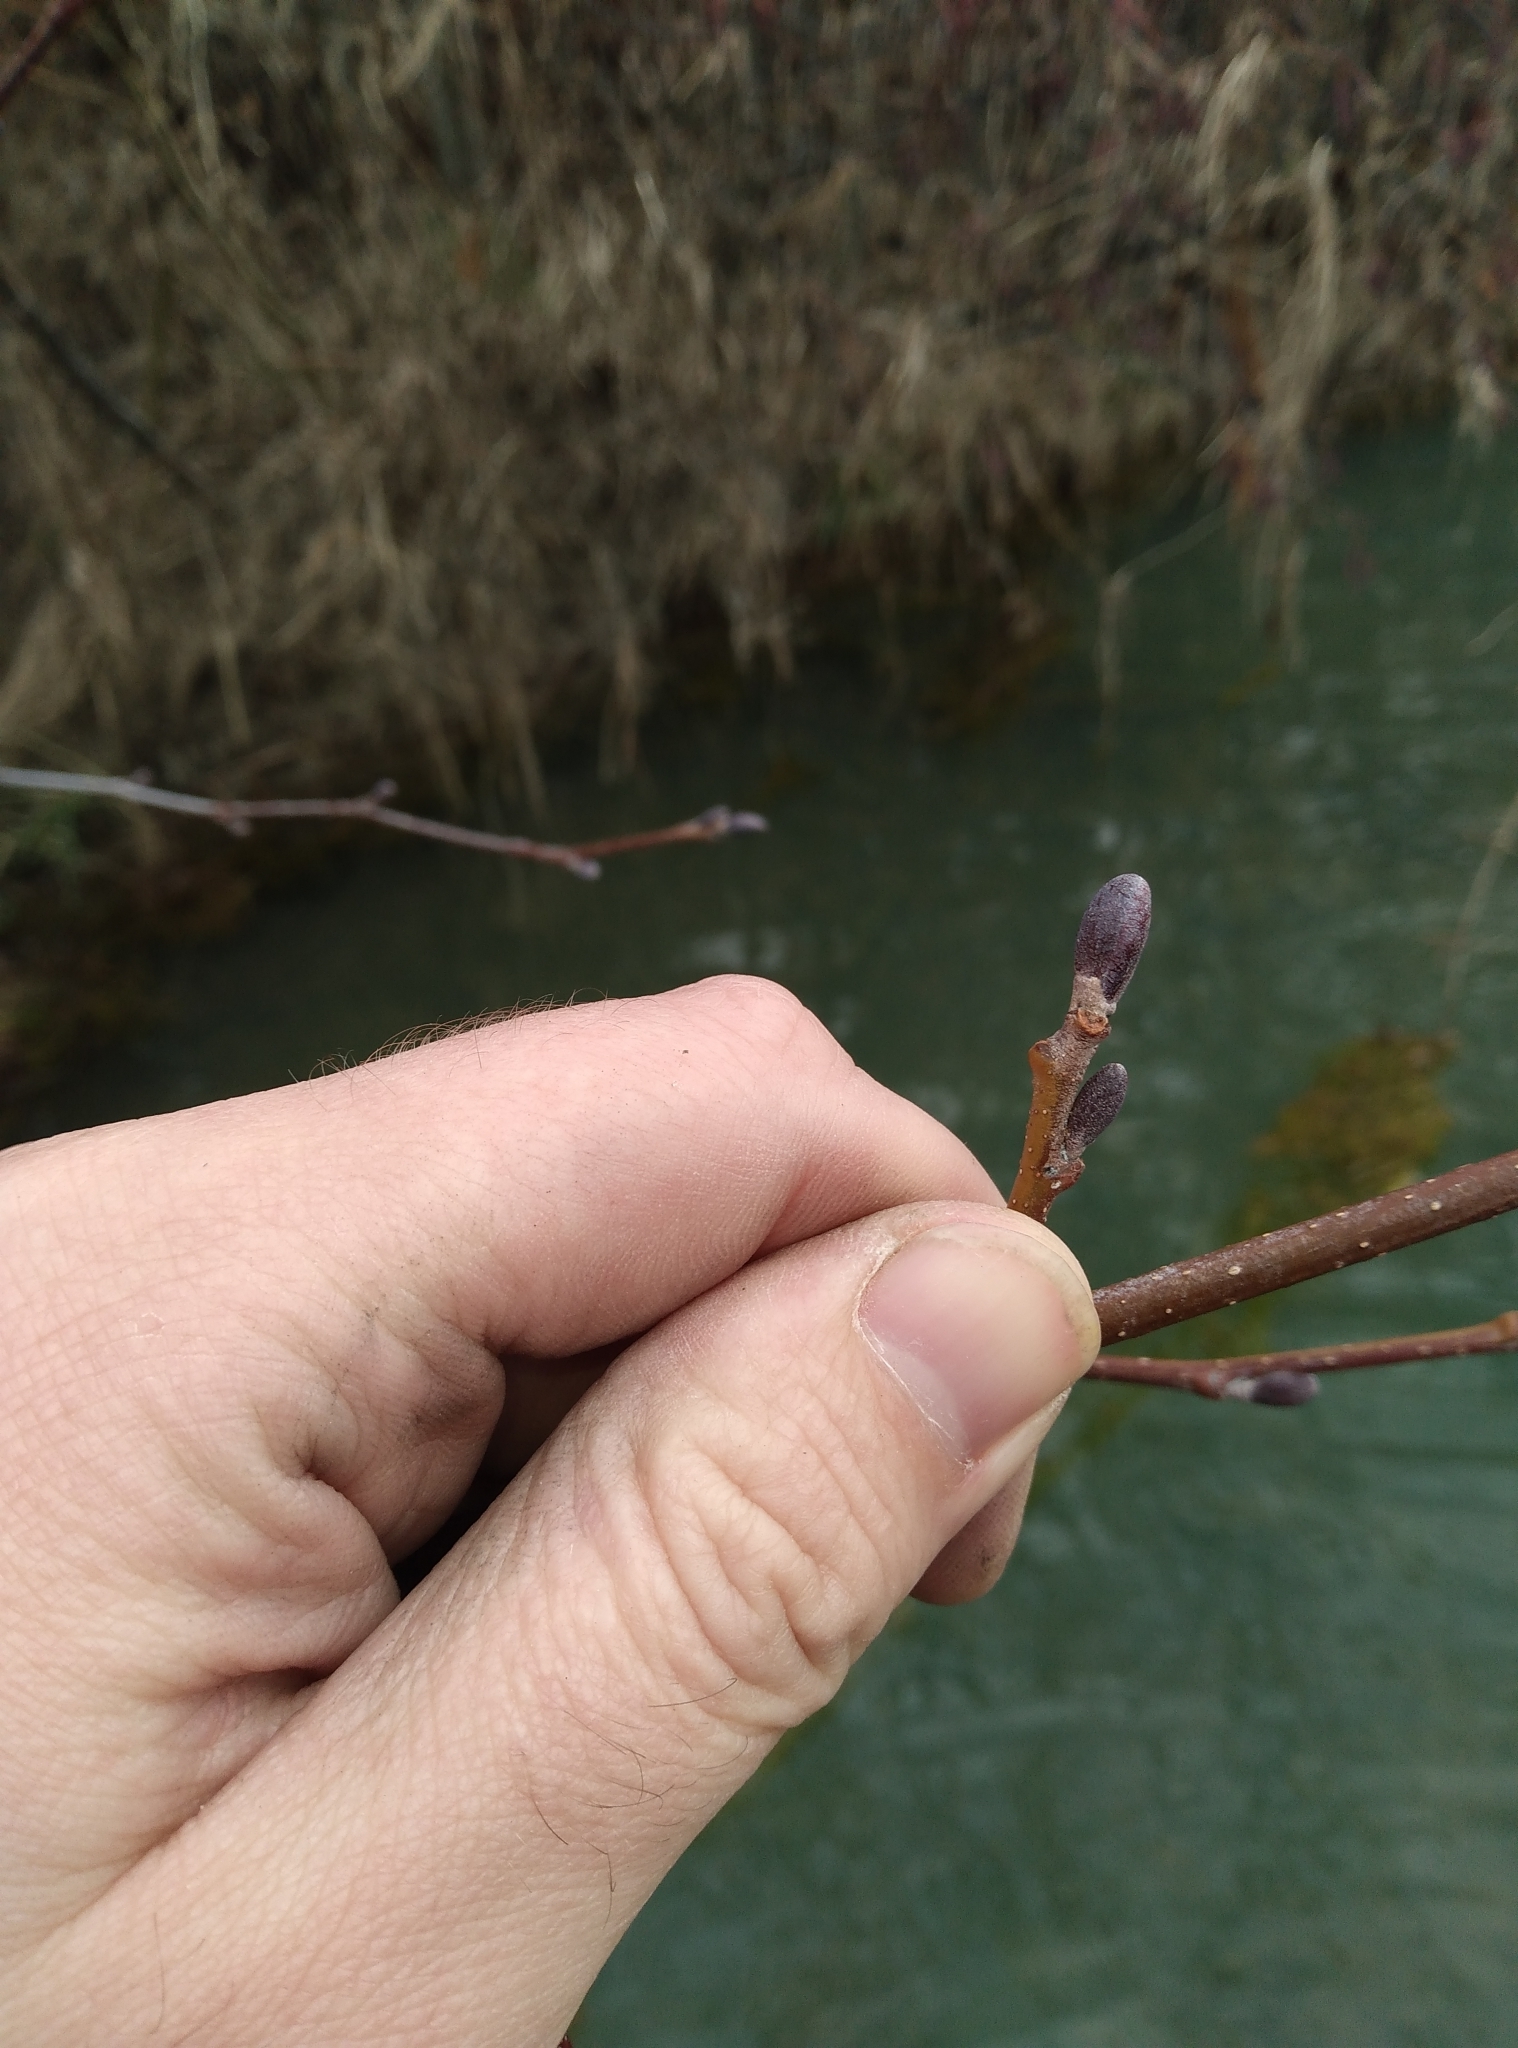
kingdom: Plantae
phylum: Tracheophyta
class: Magnoliopsida
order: Fagales
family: Betulaceae
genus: Alnus
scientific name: Alnus glutinosa
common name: Black alder
